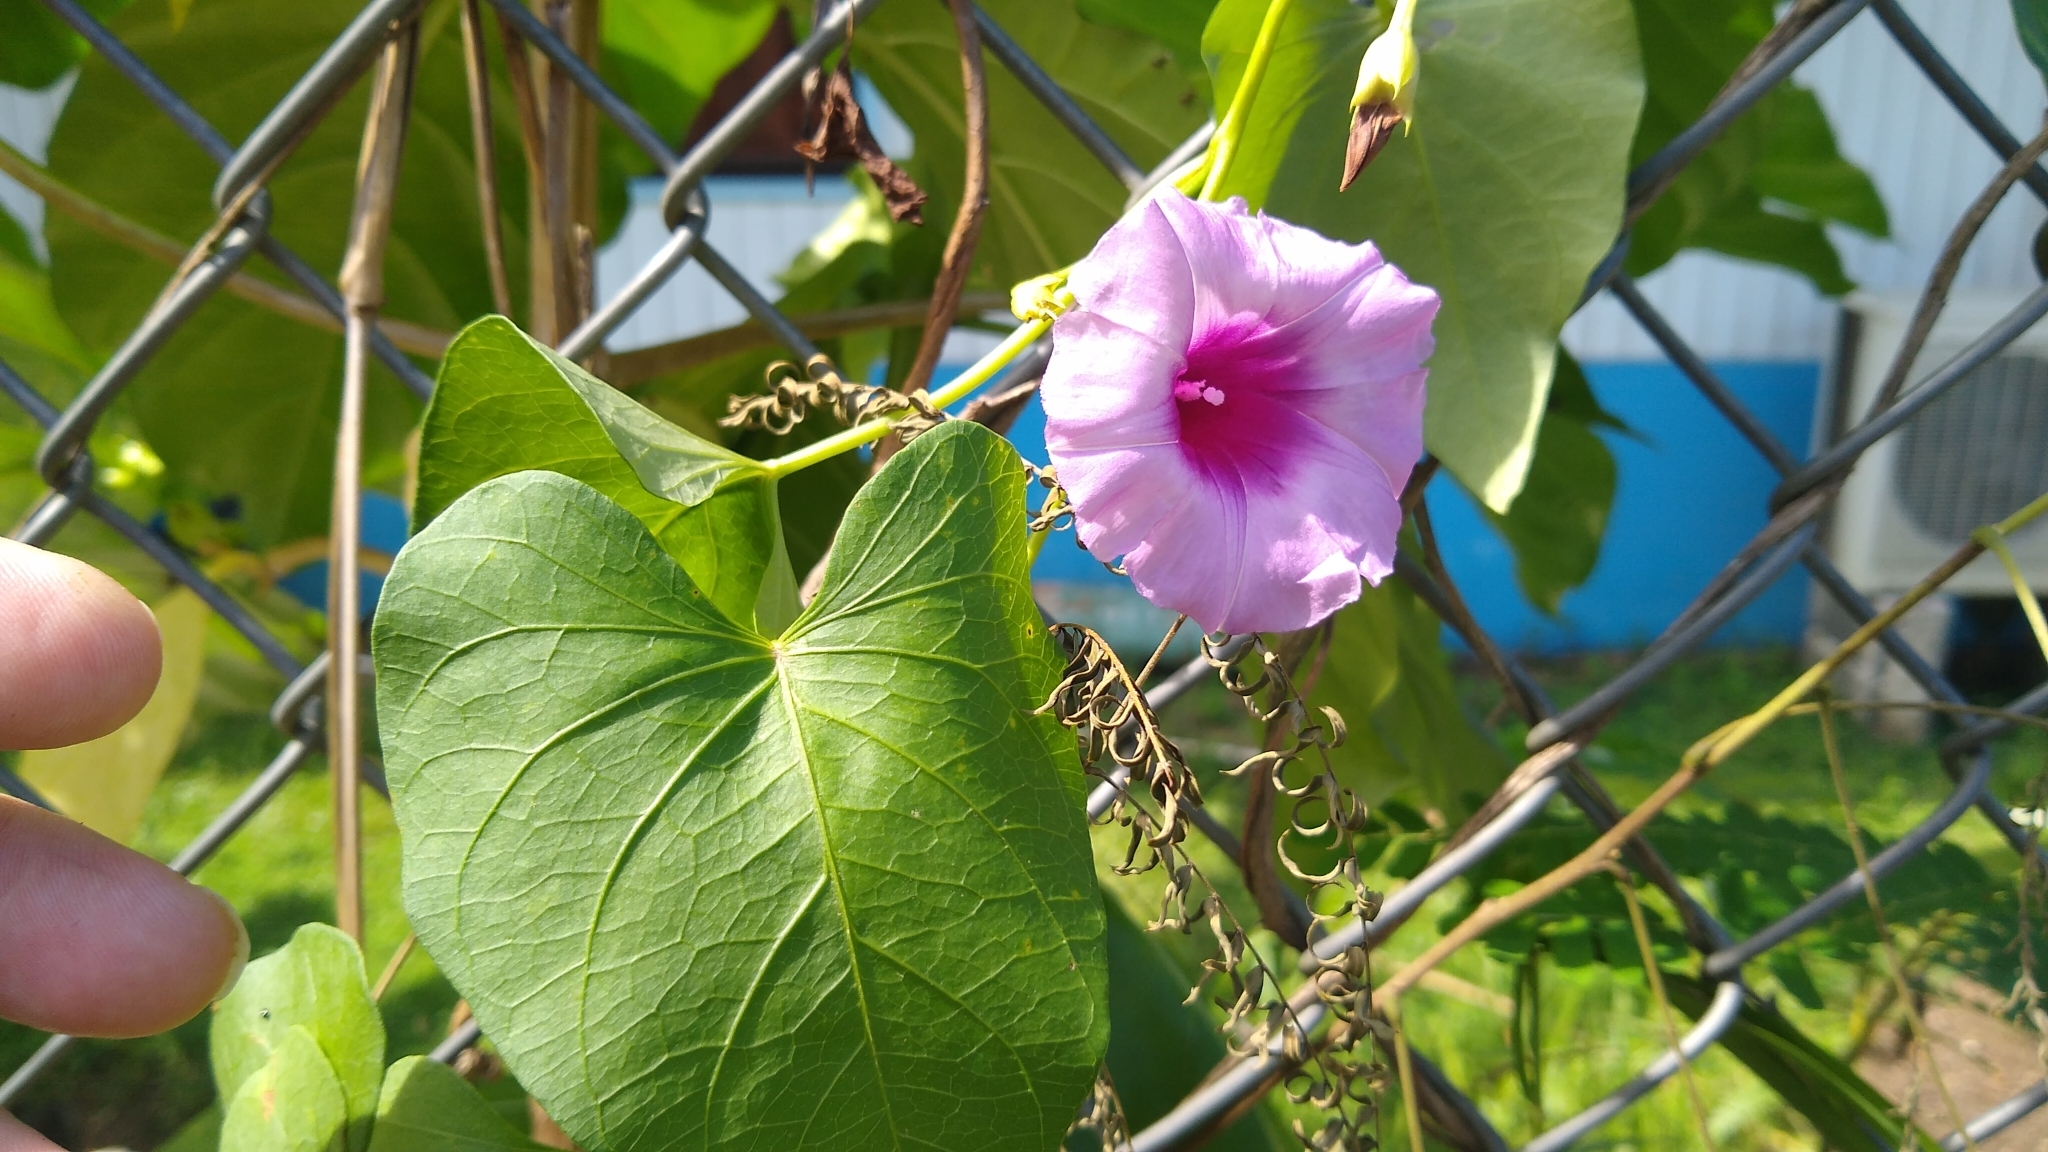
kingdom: Plantae
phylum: Tracheophyta
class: Magnoliopsida
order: Solanales
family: Convolvulaceae
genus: Ipomoea
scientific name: Ipomoea littoralis
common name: Coastal morning glory
